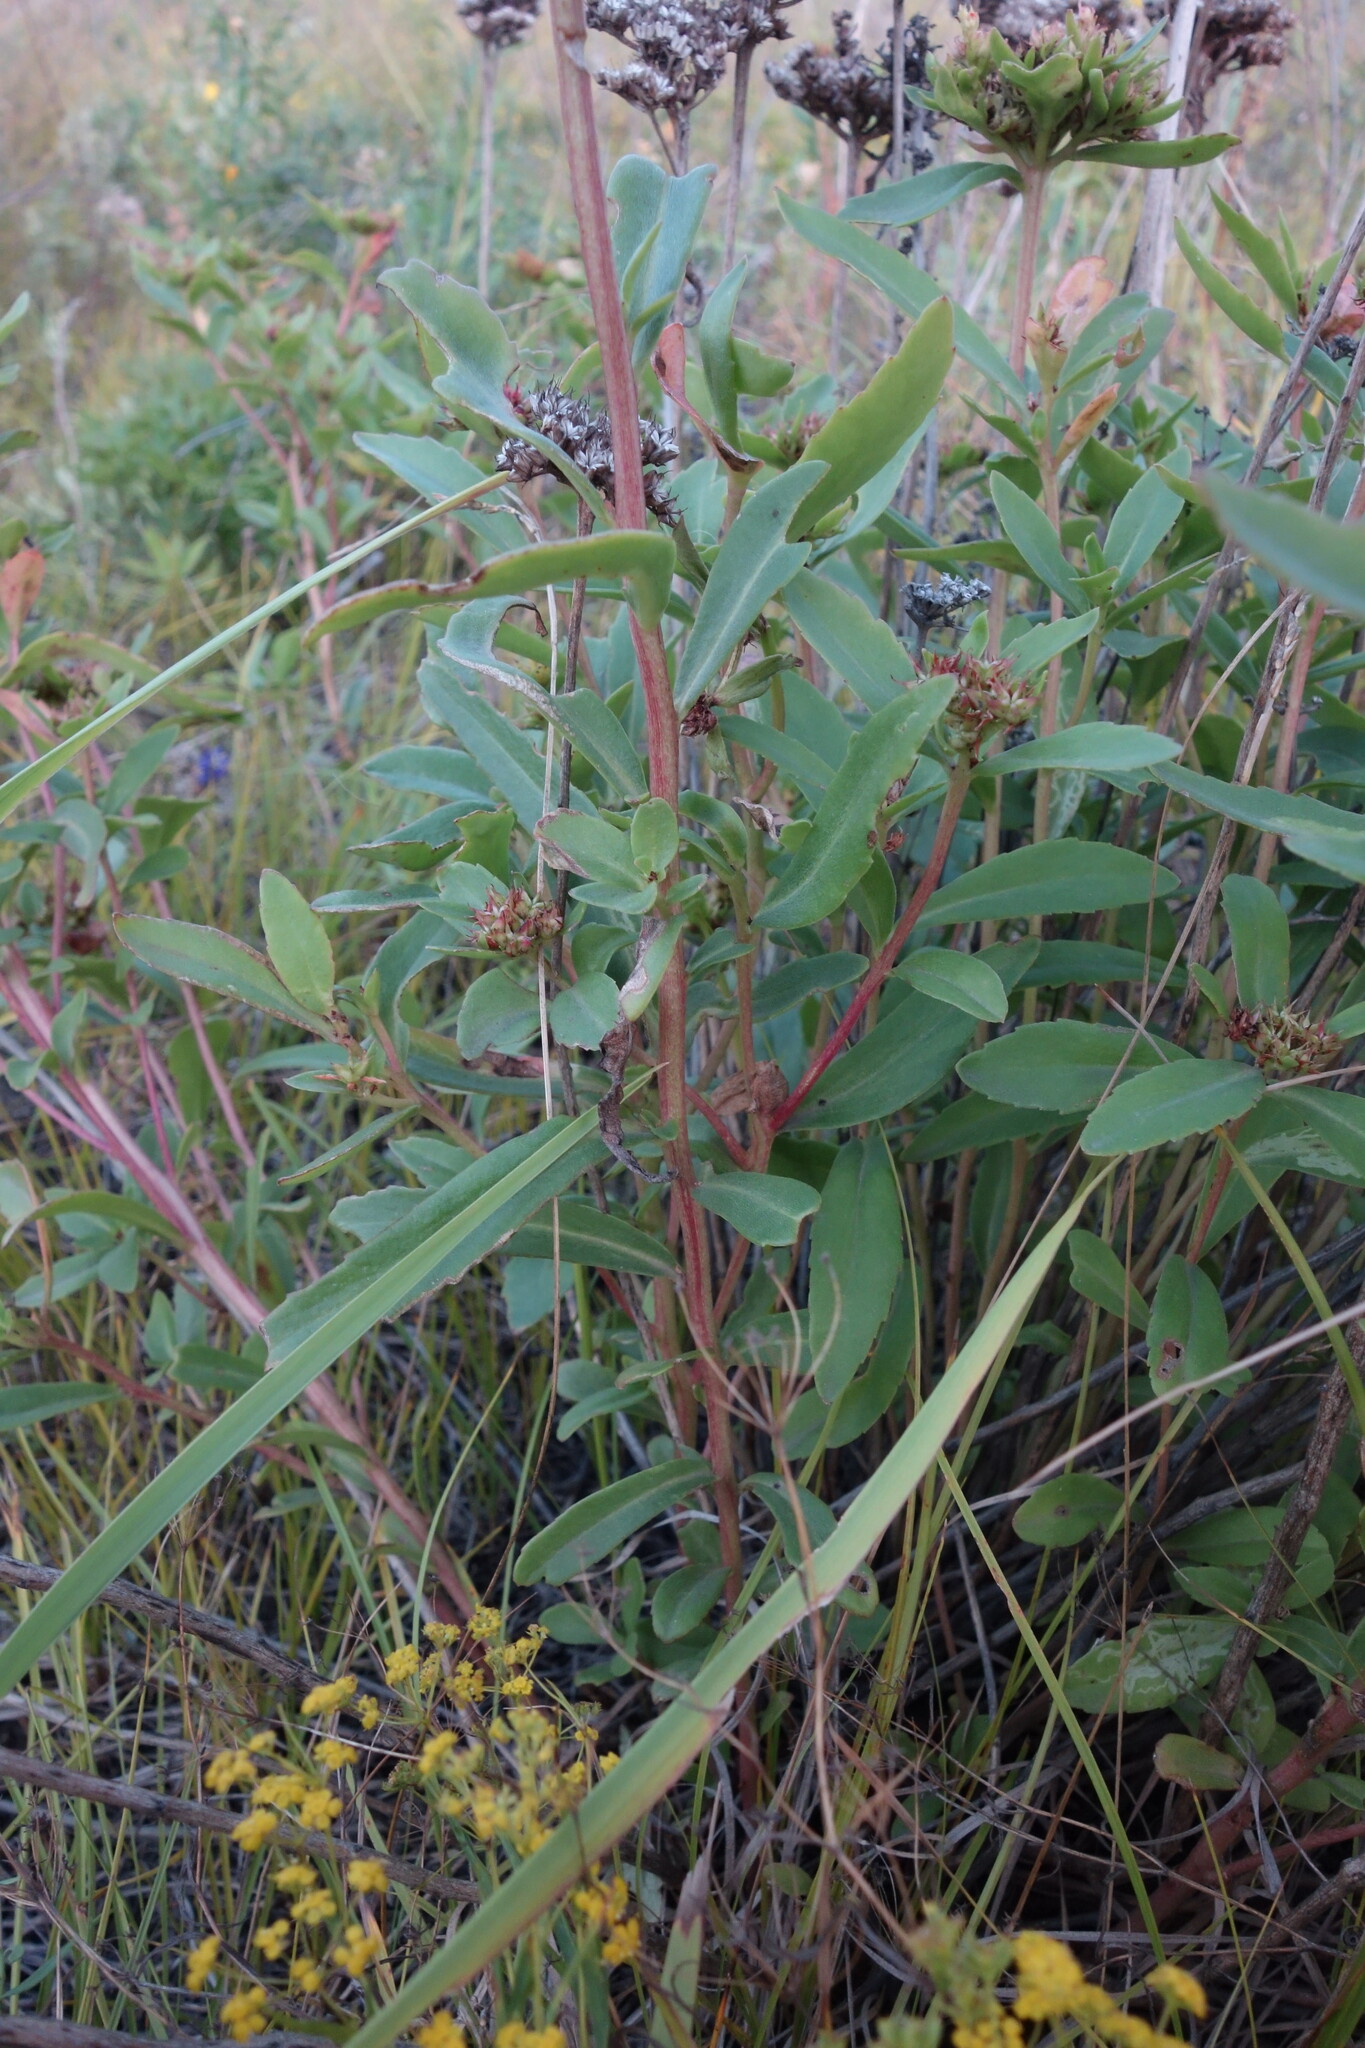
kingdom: Plantae
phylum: Tracheophyta
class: Magnoliopsida
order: Saxifragales
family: Crassulaceae
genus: Phedimus
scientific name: Phedimus aizoon
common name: Orpin aizoon
